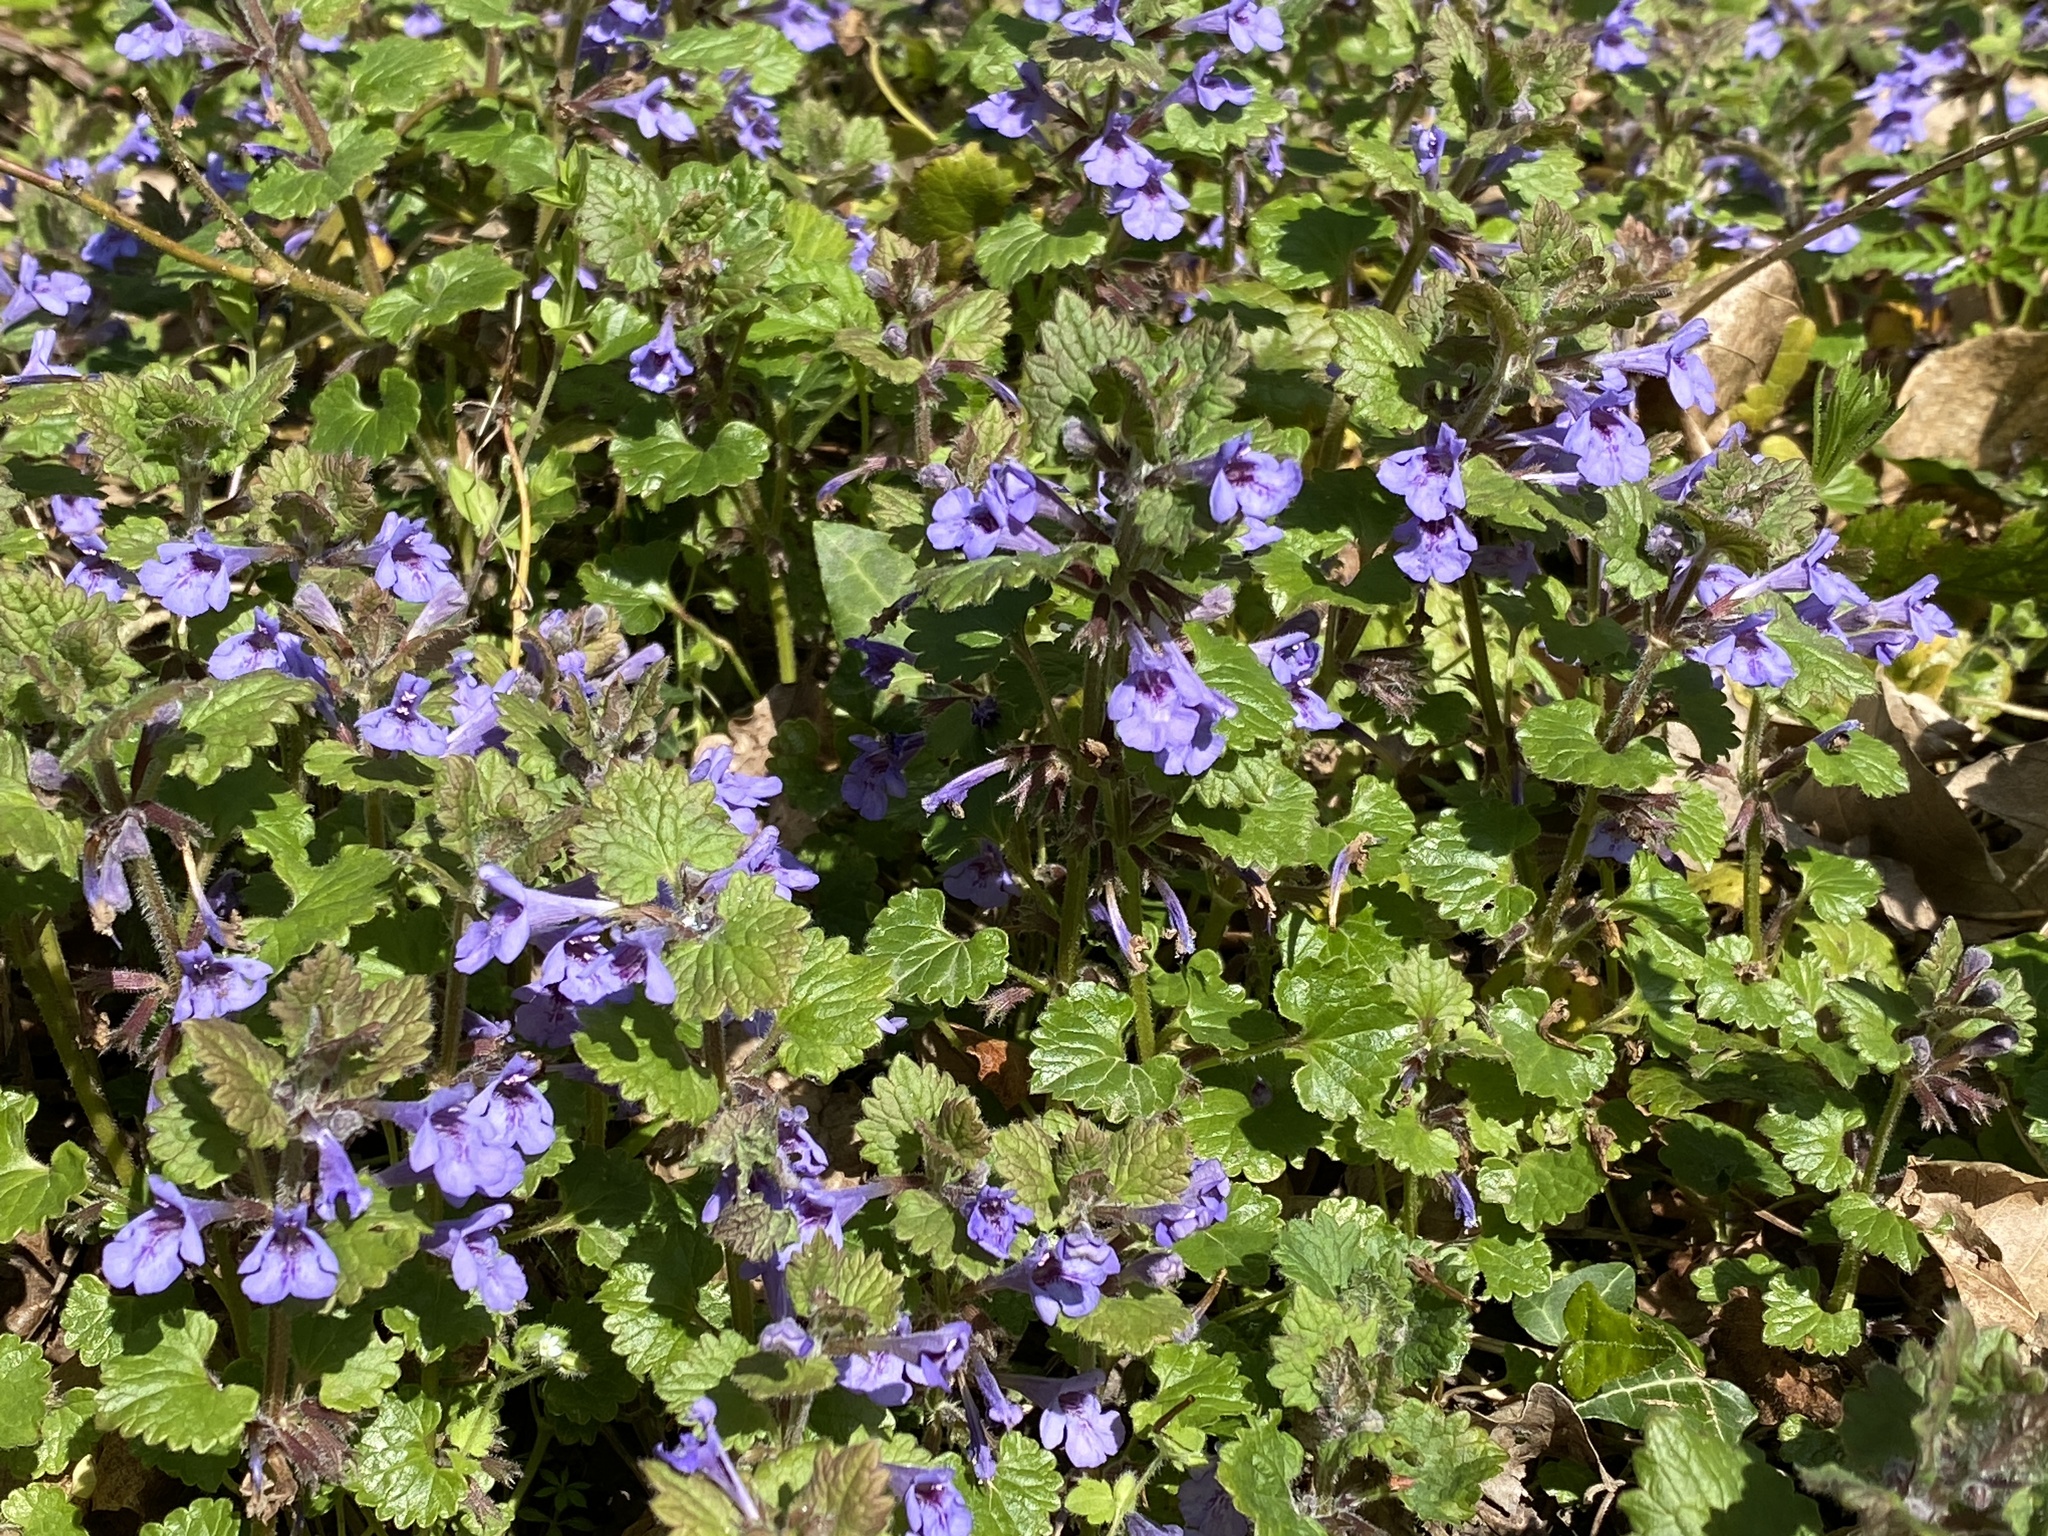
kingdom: Plantae
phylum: Tracheophyta
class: Magnoliopsida
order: Lamiales
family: Lamiaceae
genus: Glechoma
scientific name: Glechoma hederacea
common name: Ground ivy
